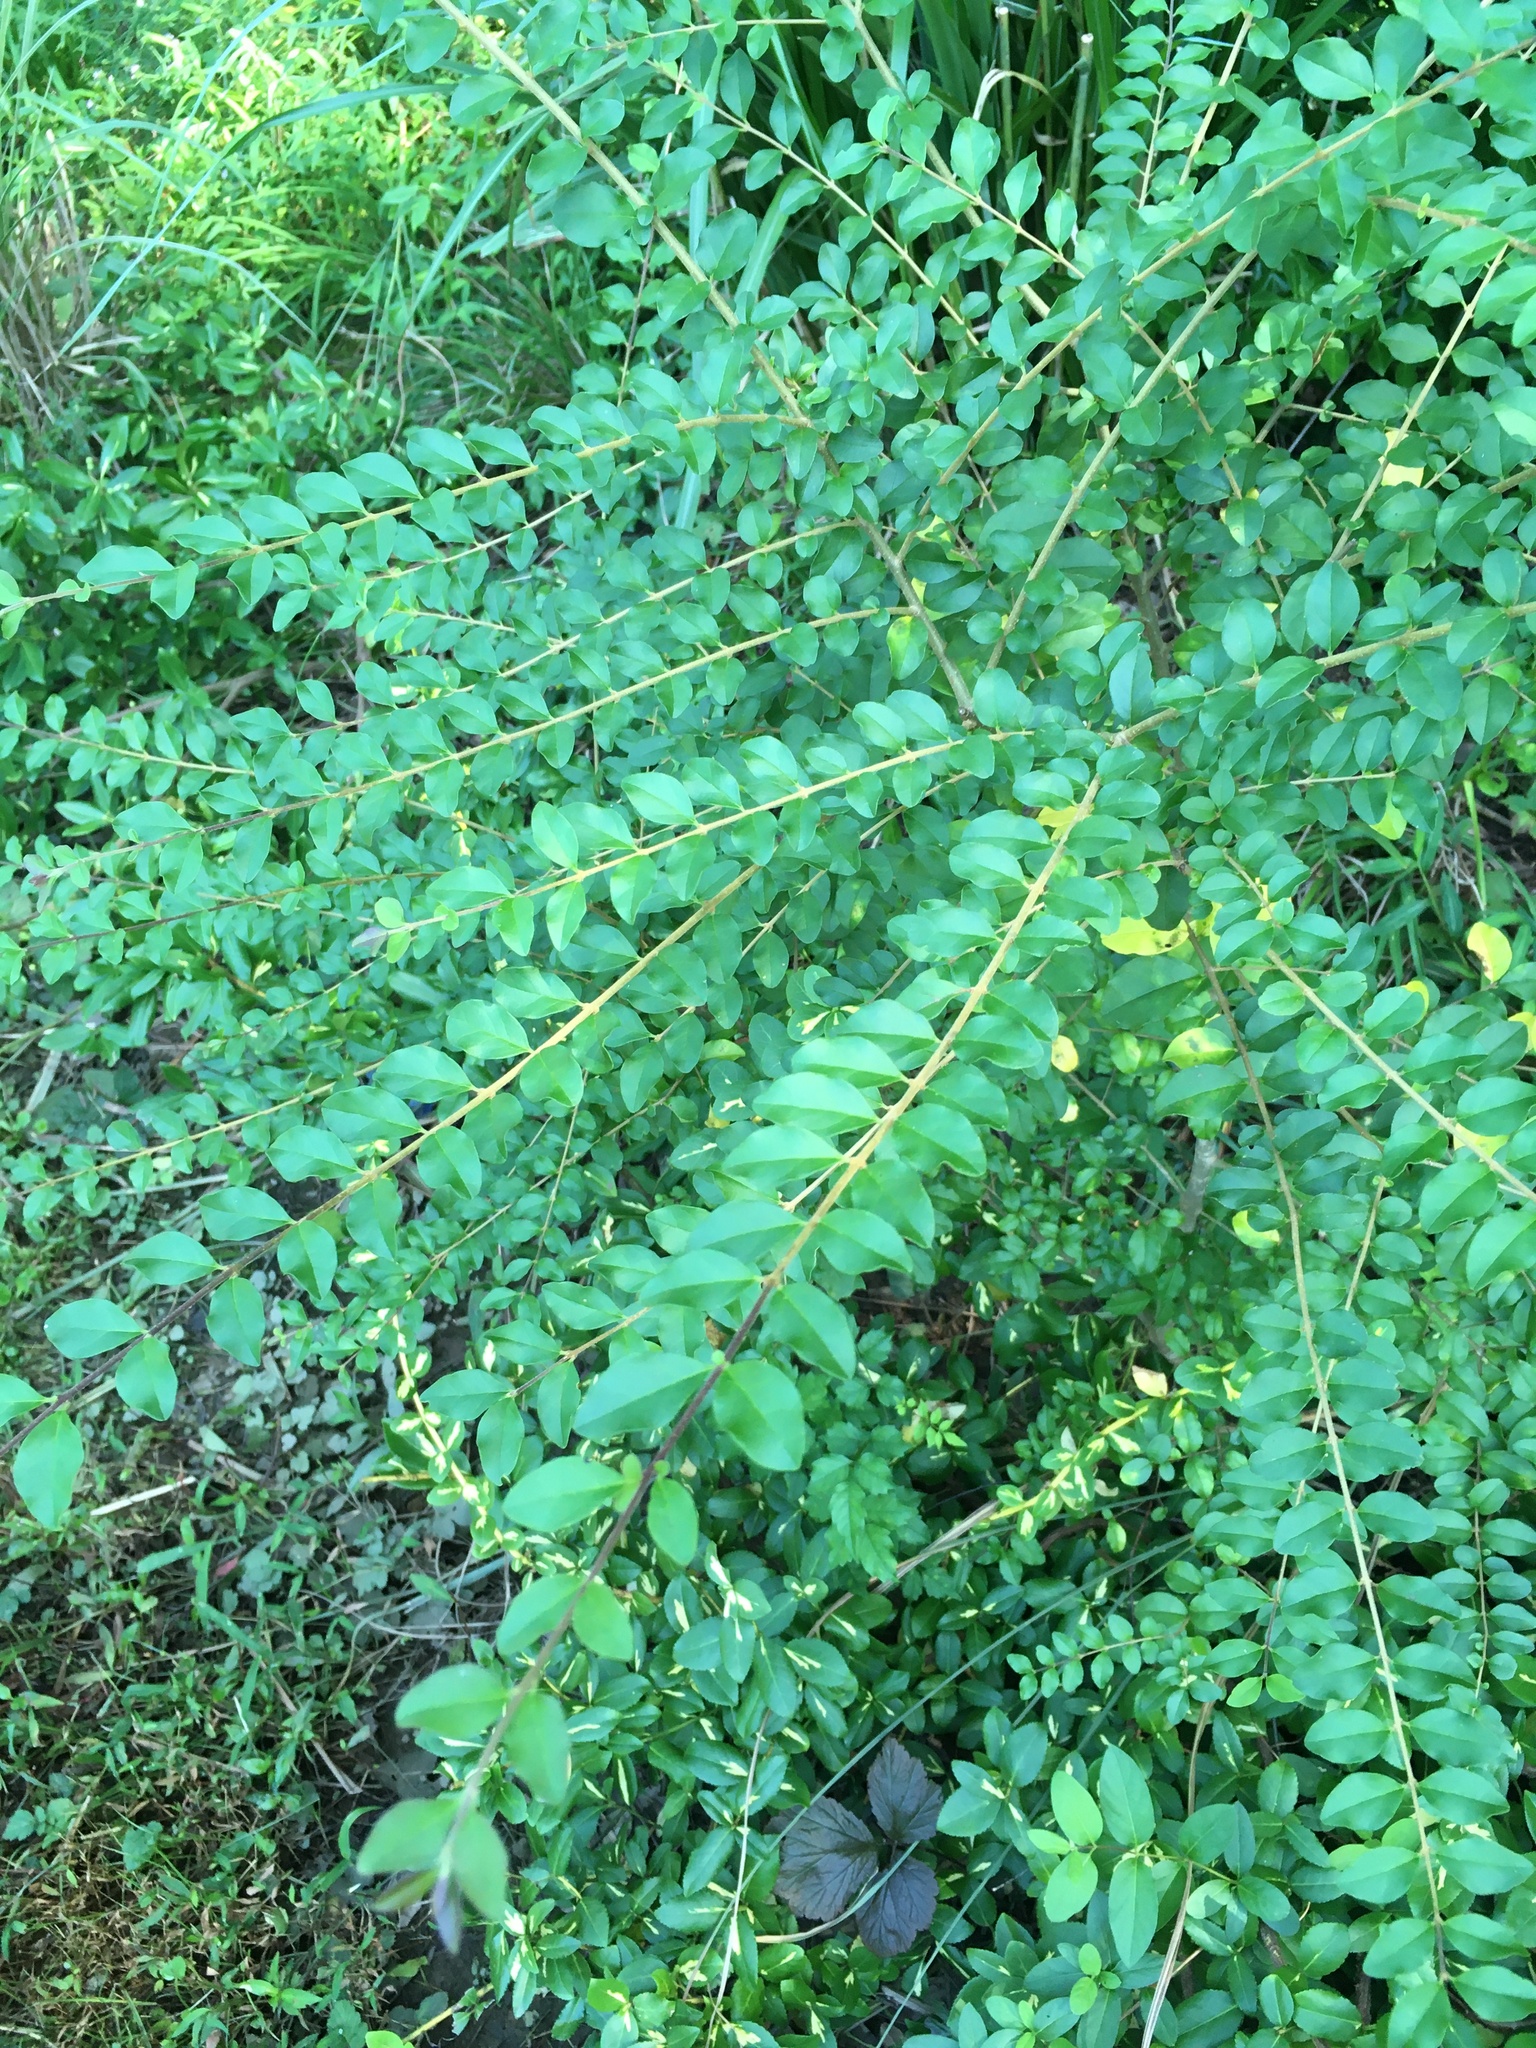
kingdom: Plantae
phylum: Tracheophyta
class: Magnoliopsida
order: Lamiales
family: Oleaceae
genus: Ligustrum
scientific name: Ligustrum sinense
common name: Chinese privet
